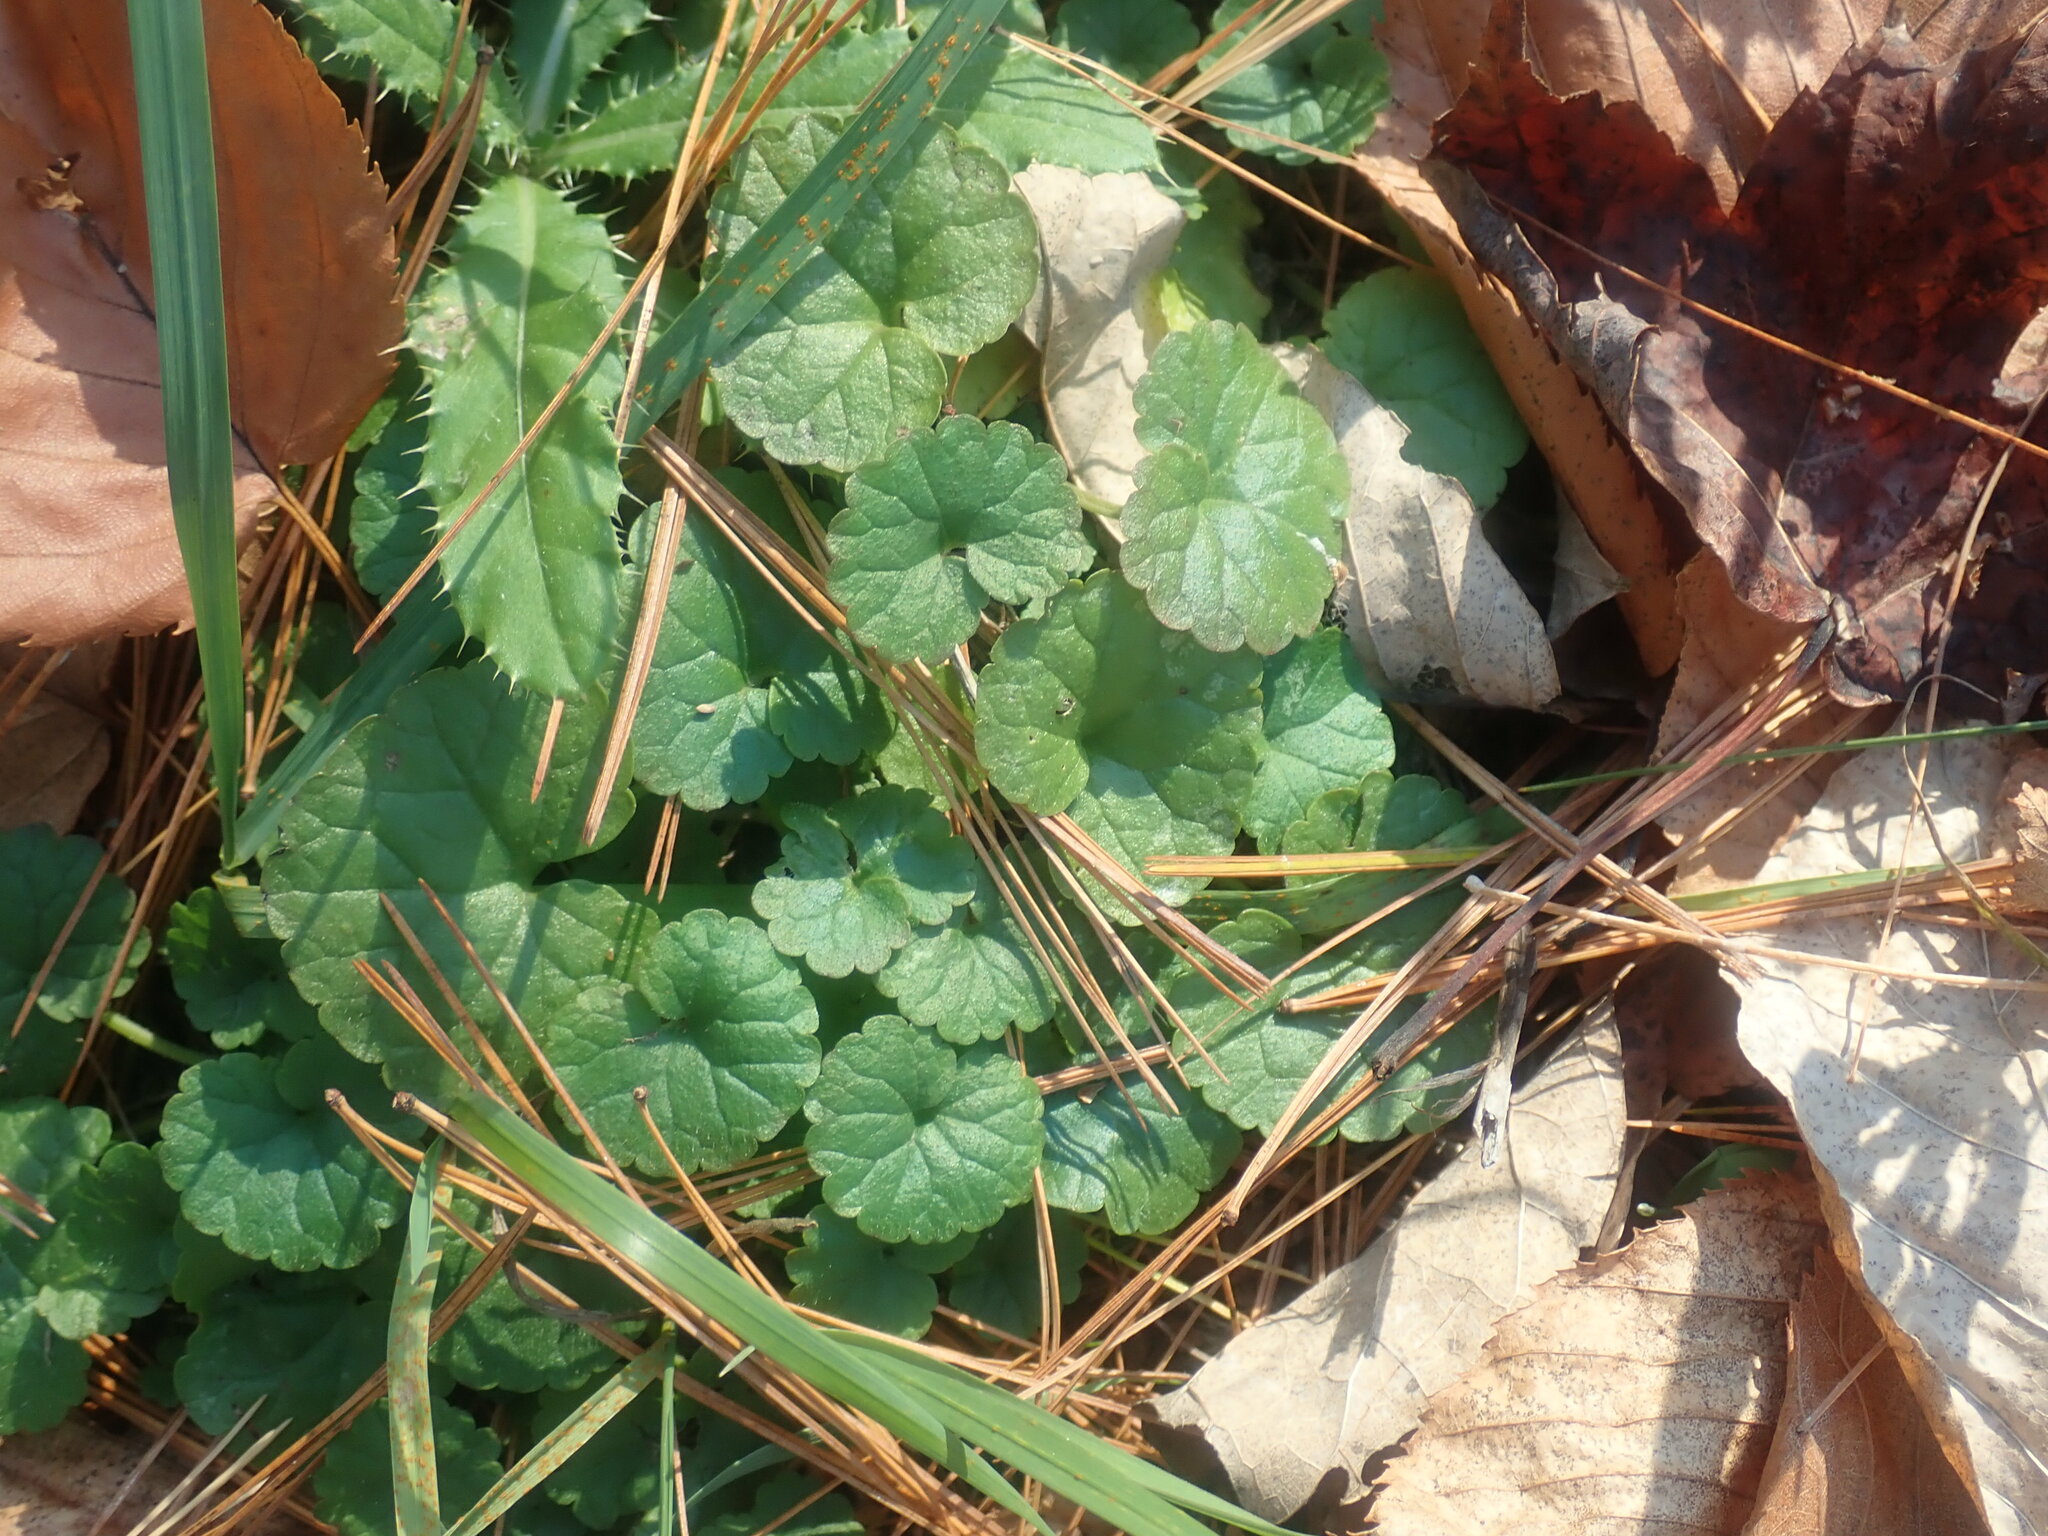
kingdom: Plantae
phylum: Tracheophyta
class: Magnoliopsida
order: Lamiales
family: Lamiaceae
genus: Glechoma
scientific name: Glechoma hederacea
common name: Ground ivy
